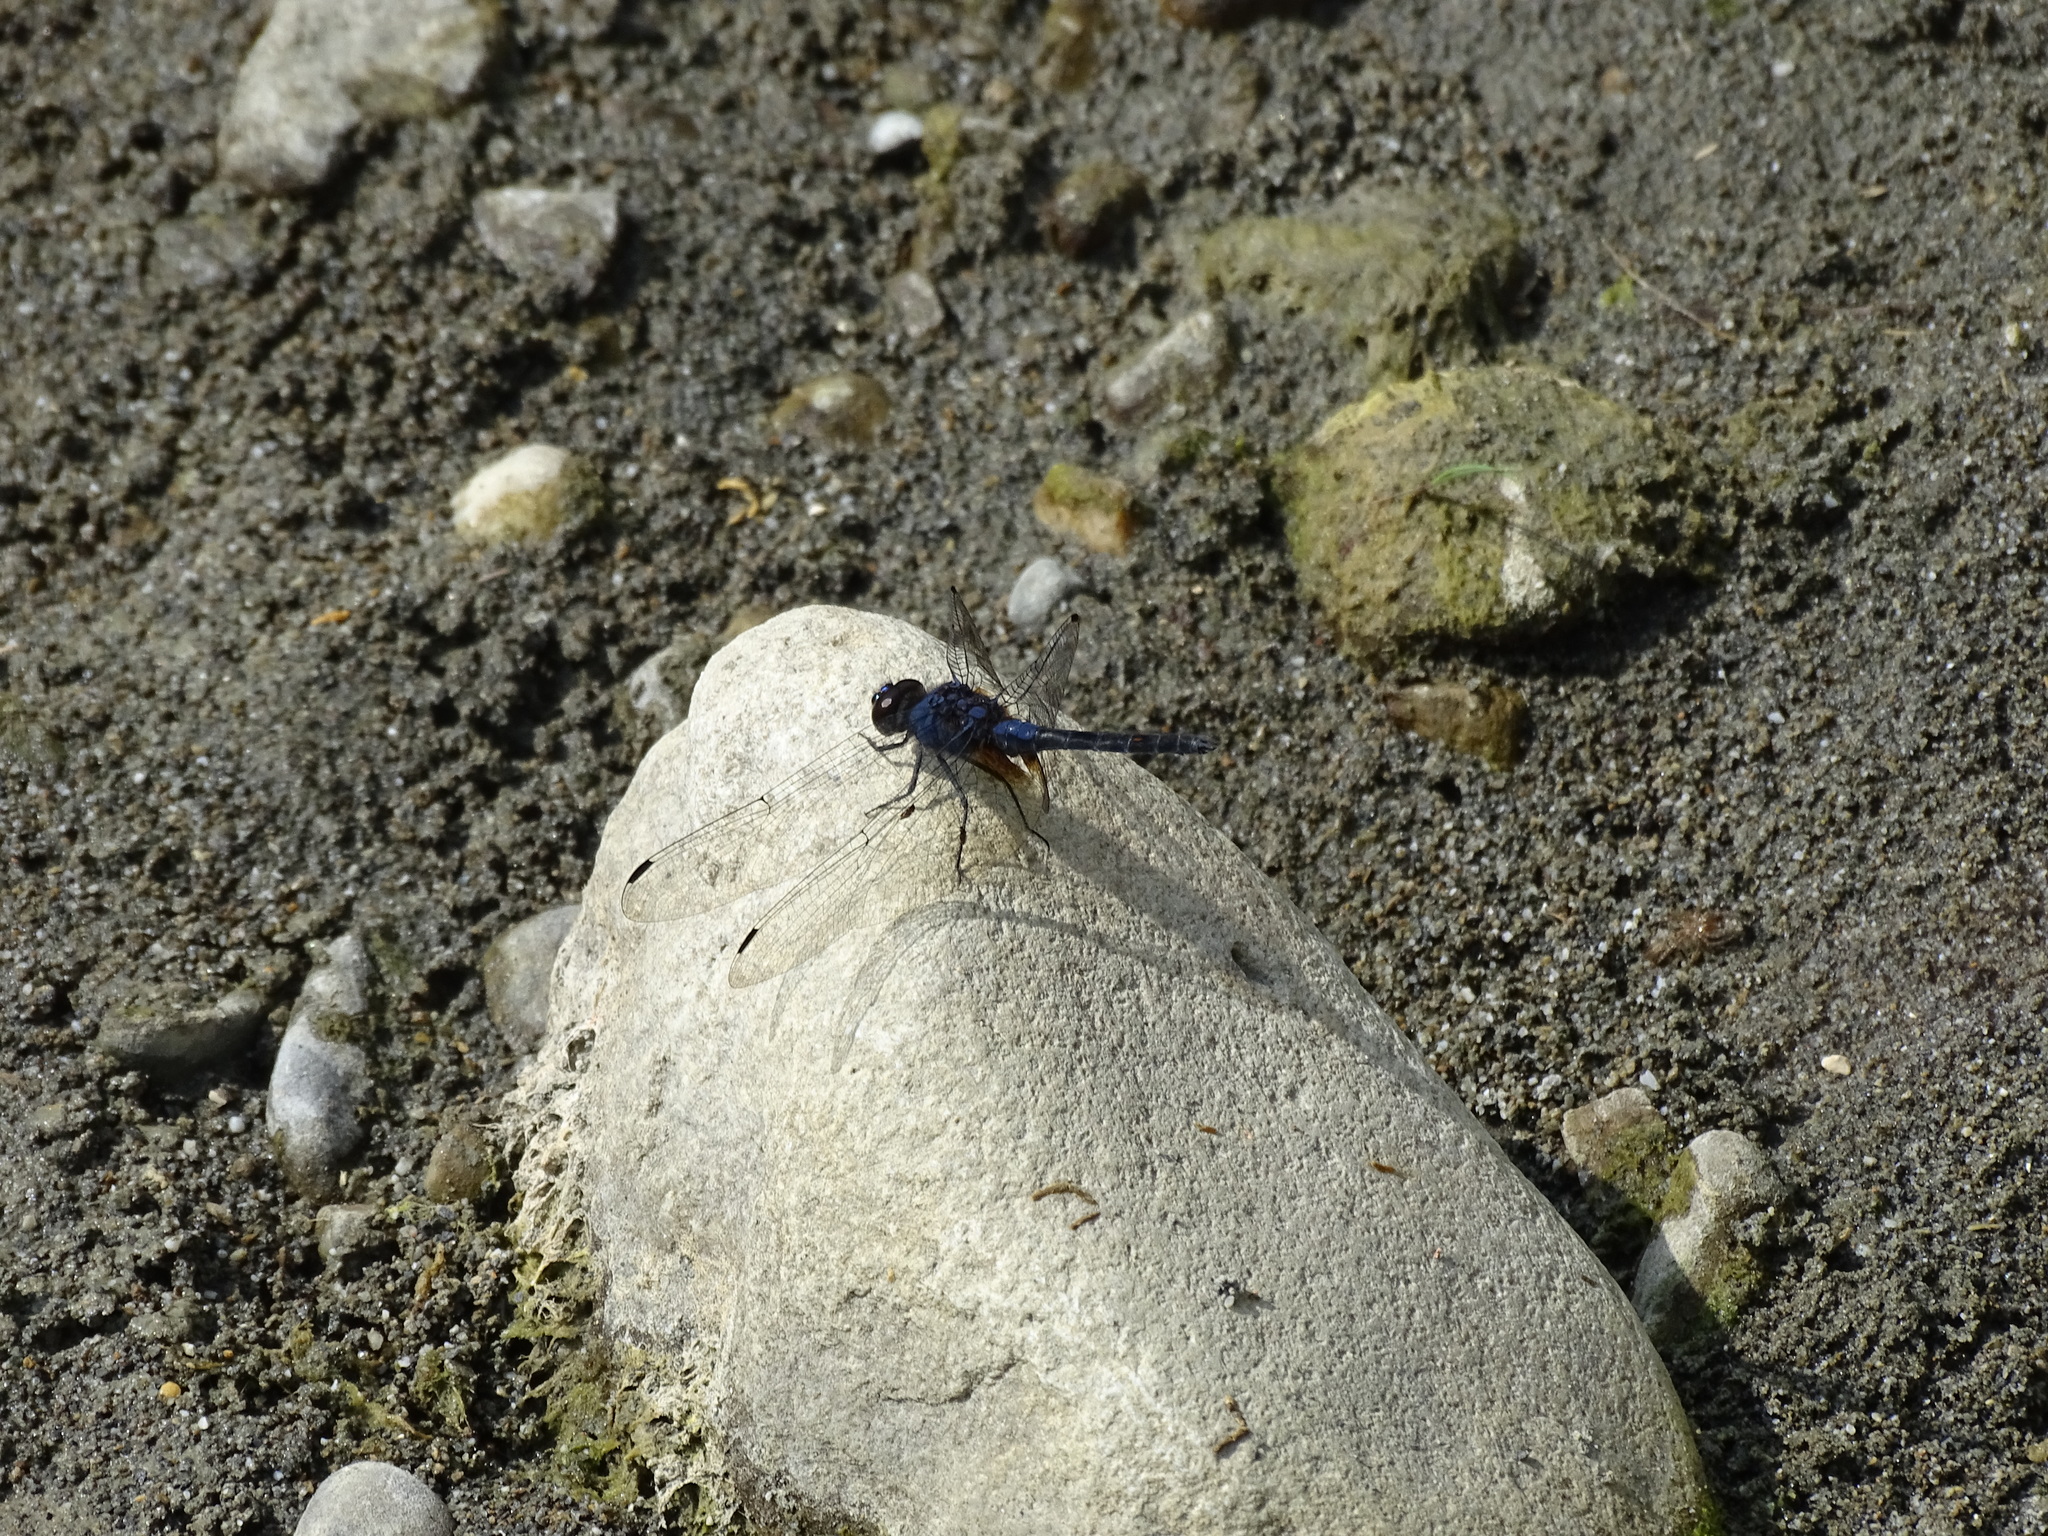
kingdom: Animalia
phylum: Arthropoda
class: Insecta
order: Odonata
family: Libellulidae
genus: Trithemis
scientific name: Trithemis festiva
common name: Indigo dropwing
